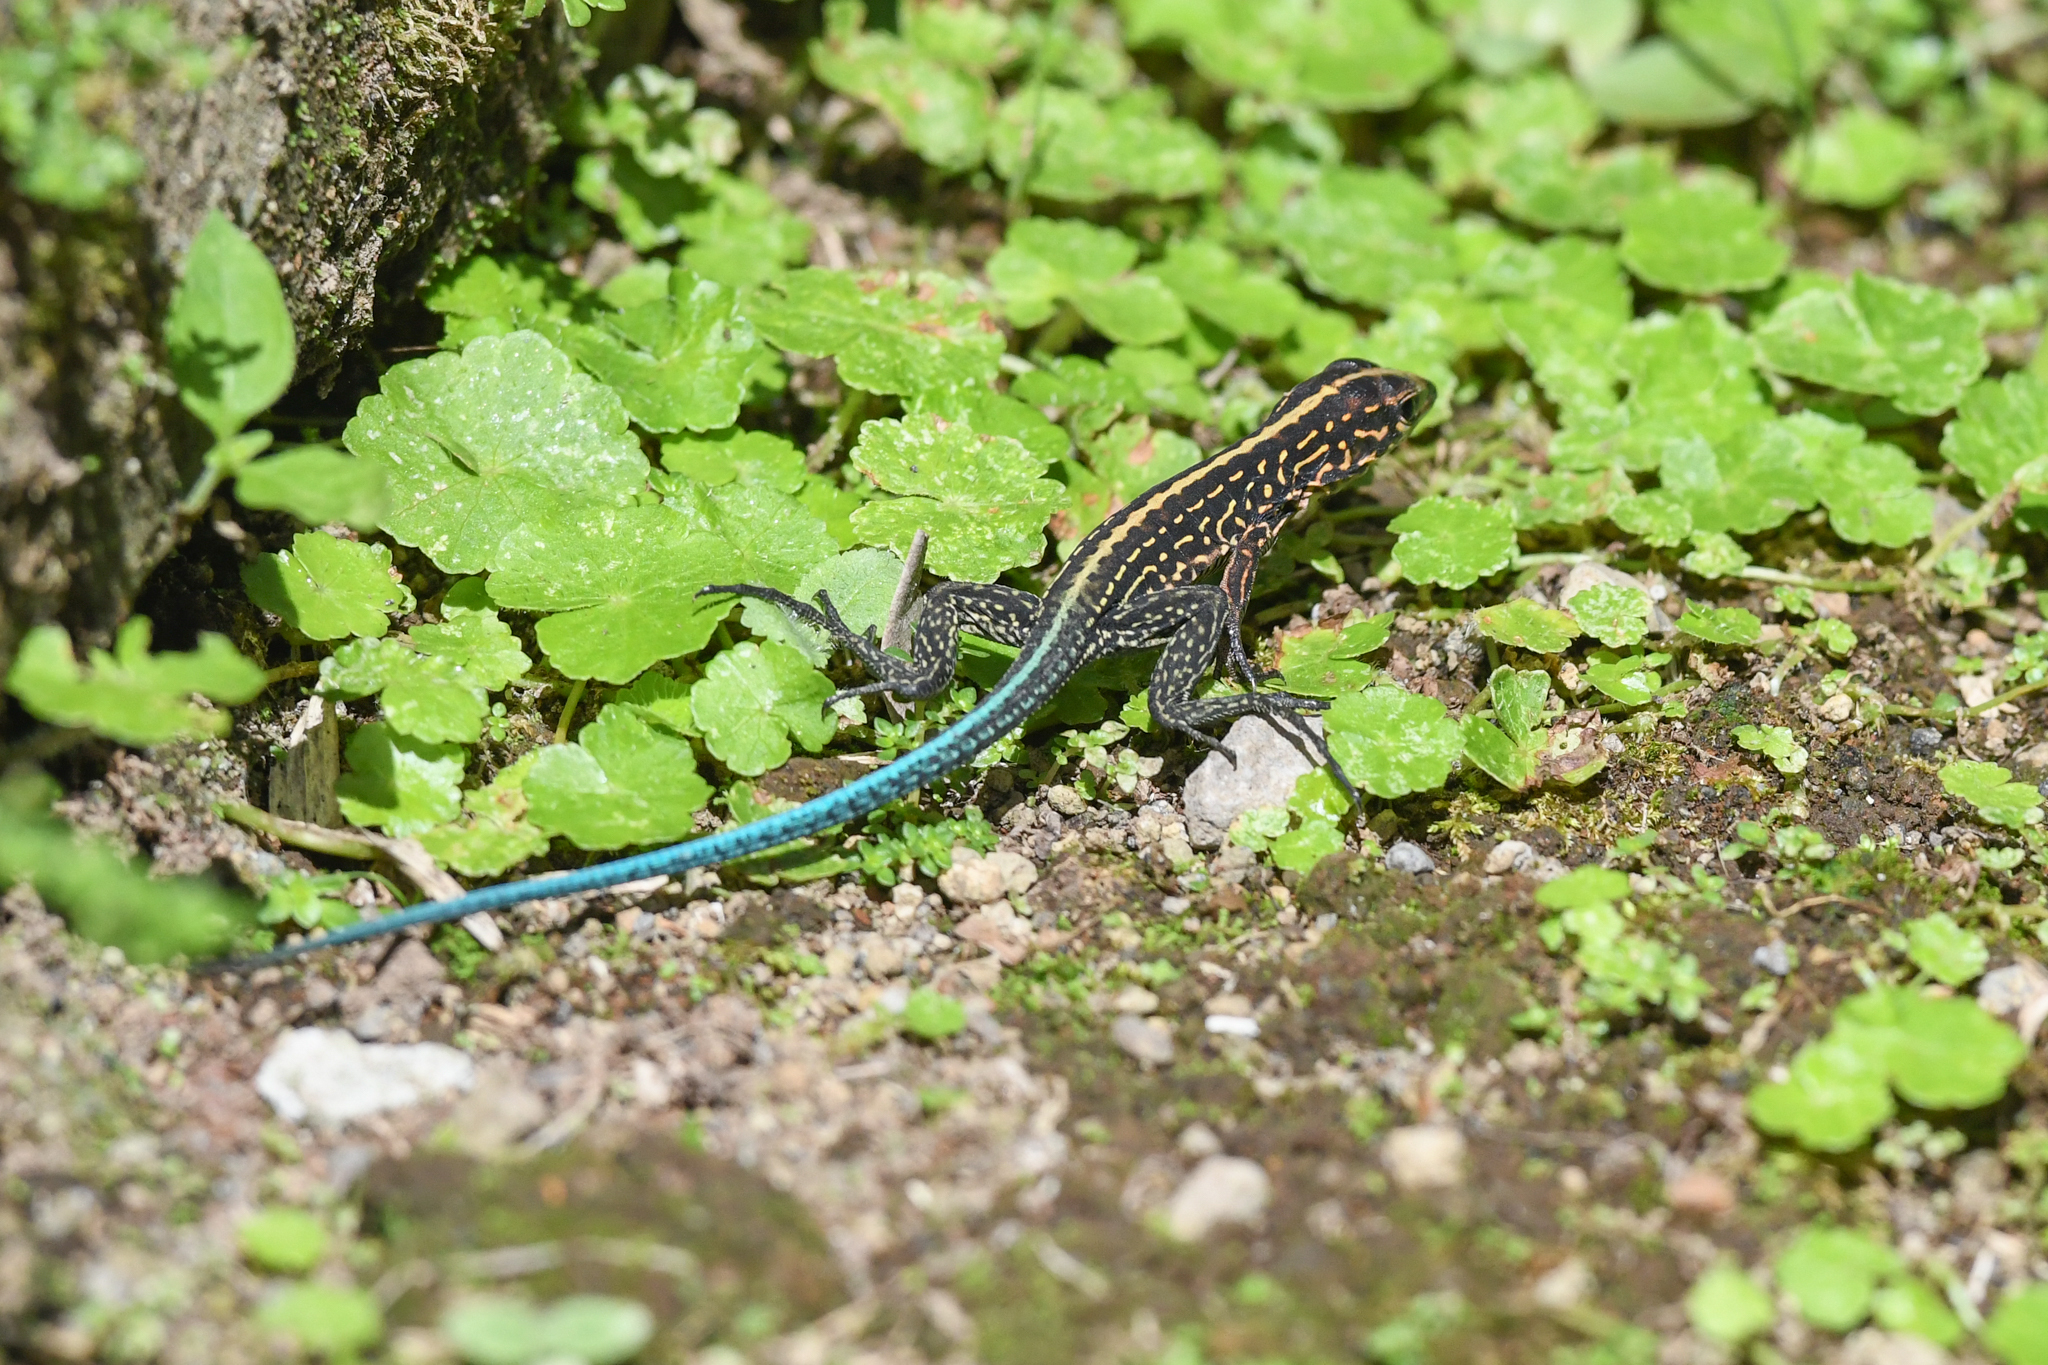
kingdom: Animalia
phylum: Chordata
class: Squamata
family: Teiidae
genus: Holcosus
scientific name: Holcosus festivus
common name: Middle american ameiva
